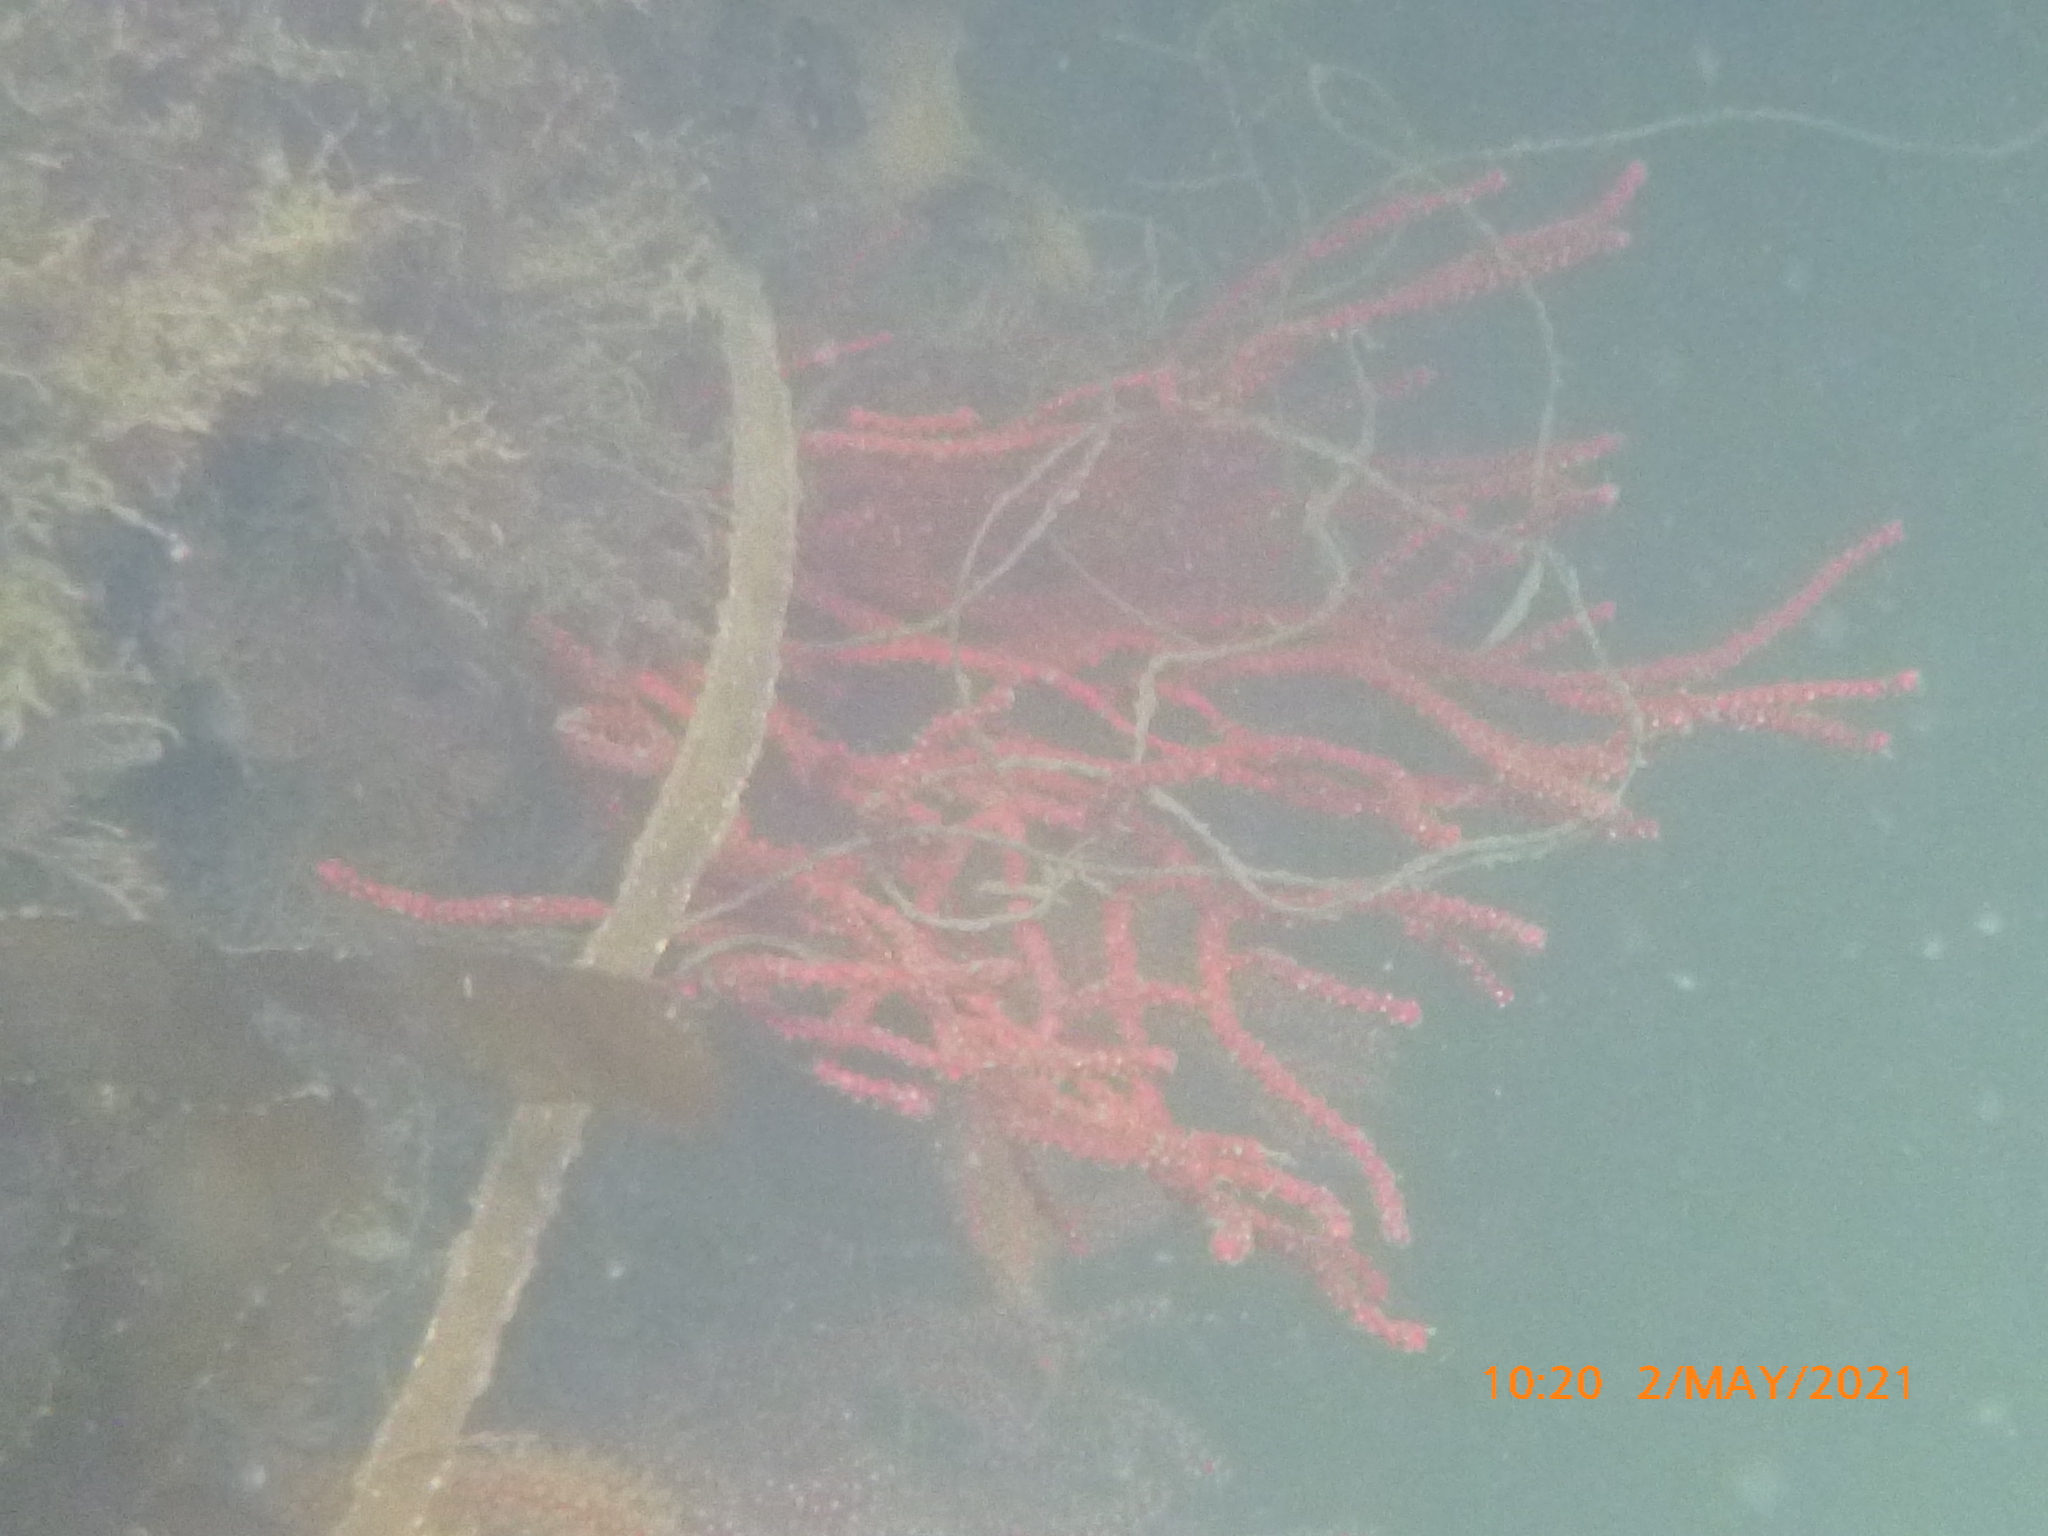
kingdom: Animalia
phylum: Cnidaria
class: Anthozoa
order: Malacalcyonacea
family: Gorgoniidae
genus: Leptogorgia
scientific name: Leptogorgia chilensis
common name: Carmine sea spray
